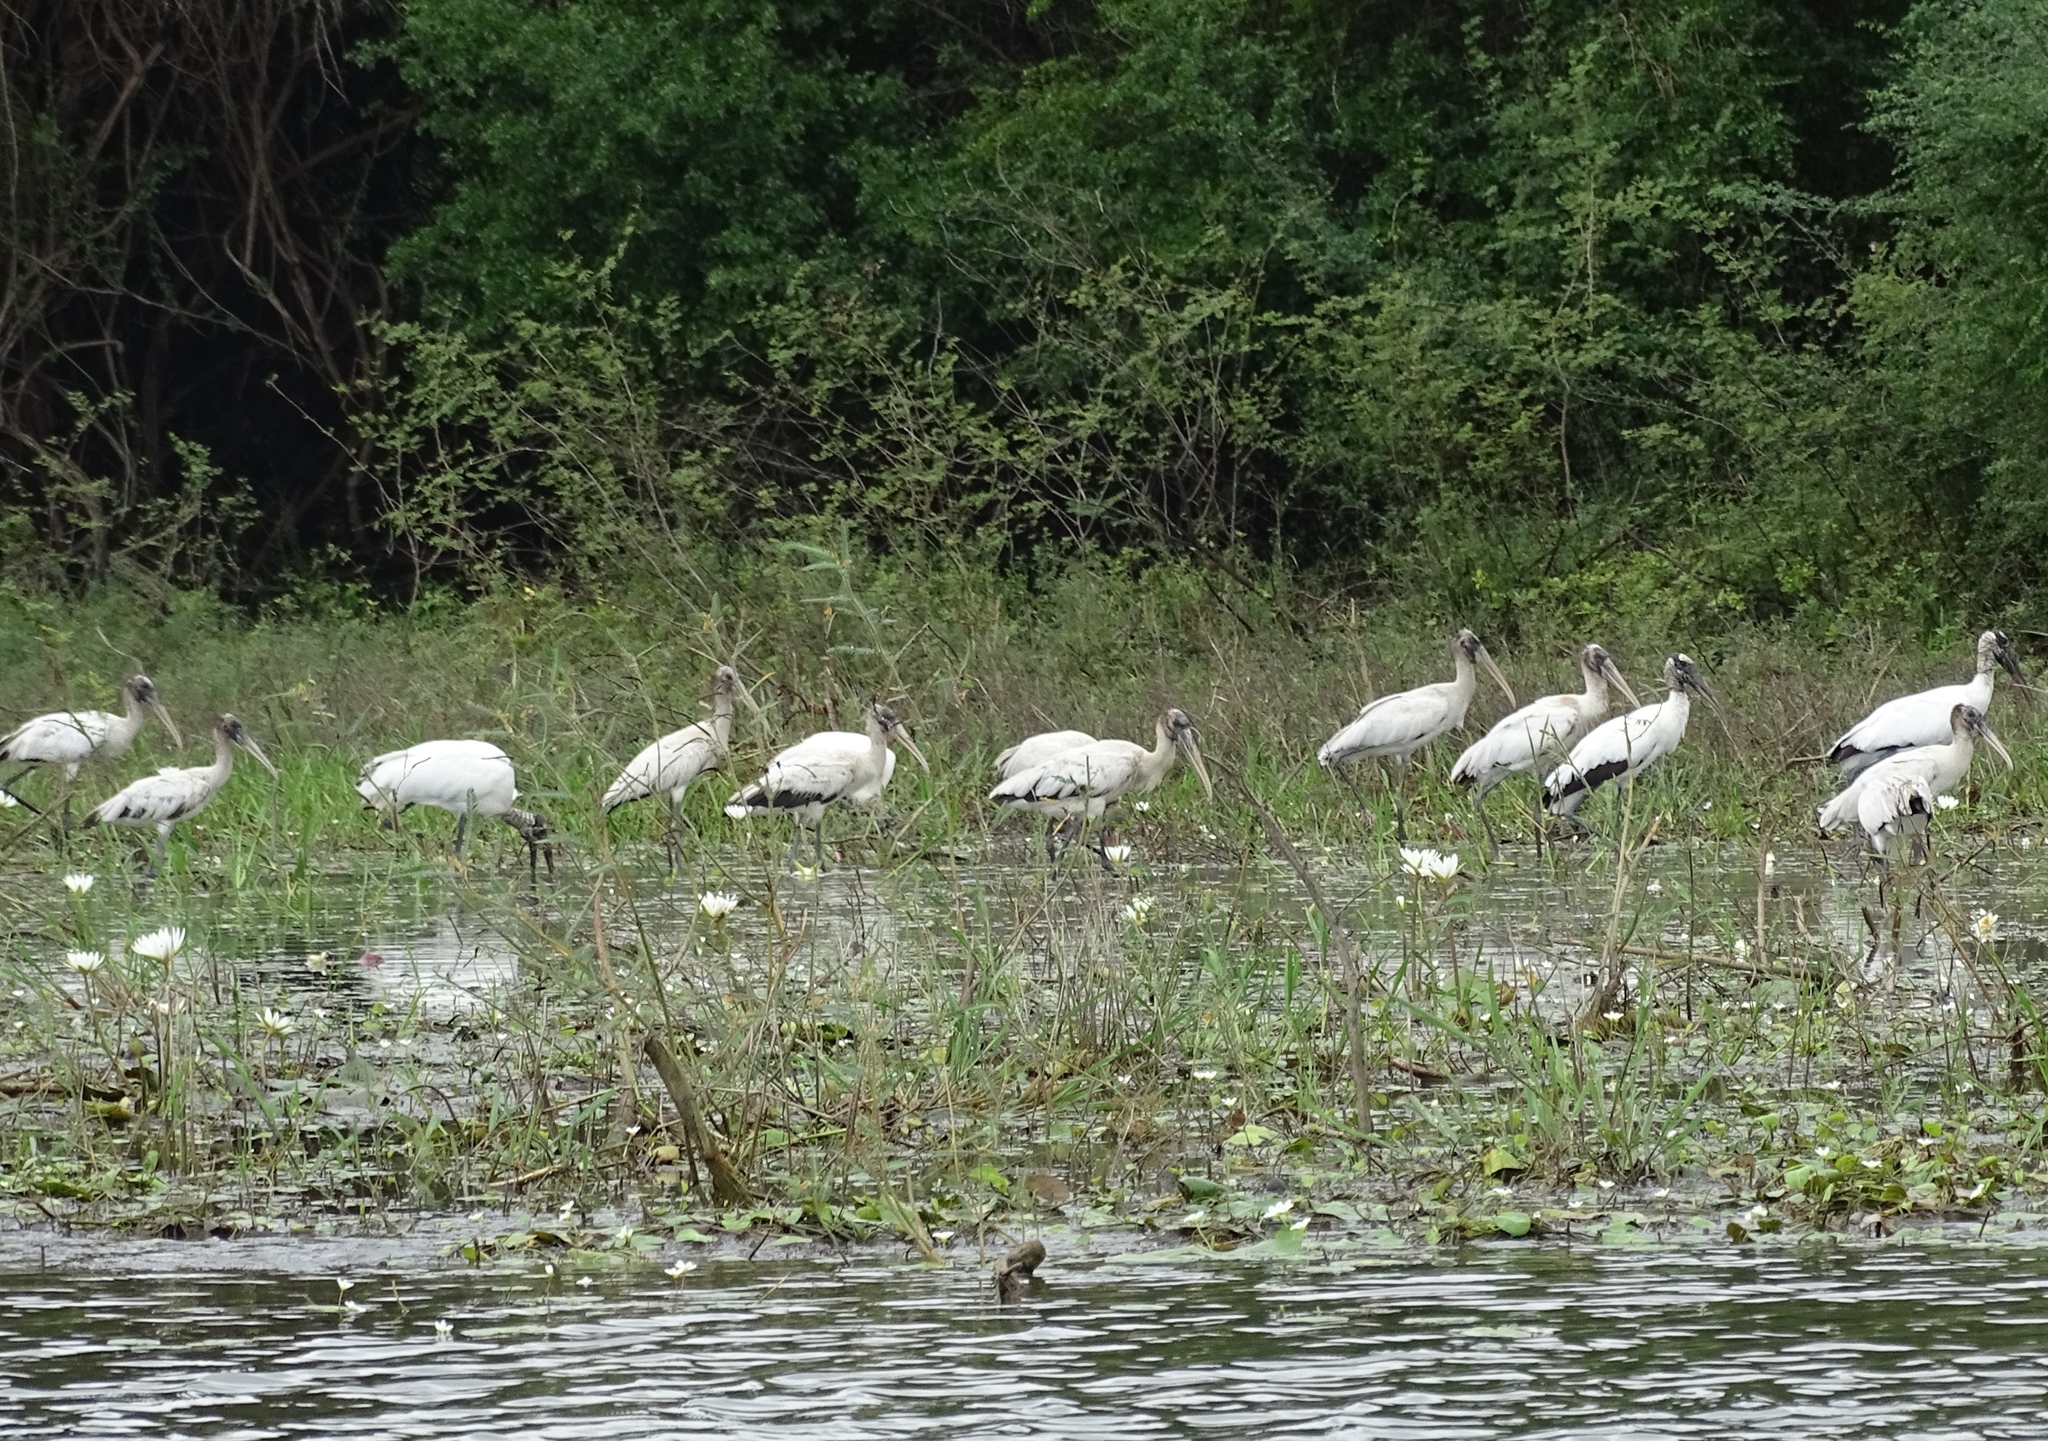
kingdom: Animalia
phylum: Chordata
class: Aves
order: Ciconiiformes
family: Ciconiidae
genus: Mycteria
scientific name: Mycteria americana
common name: Wood stork
